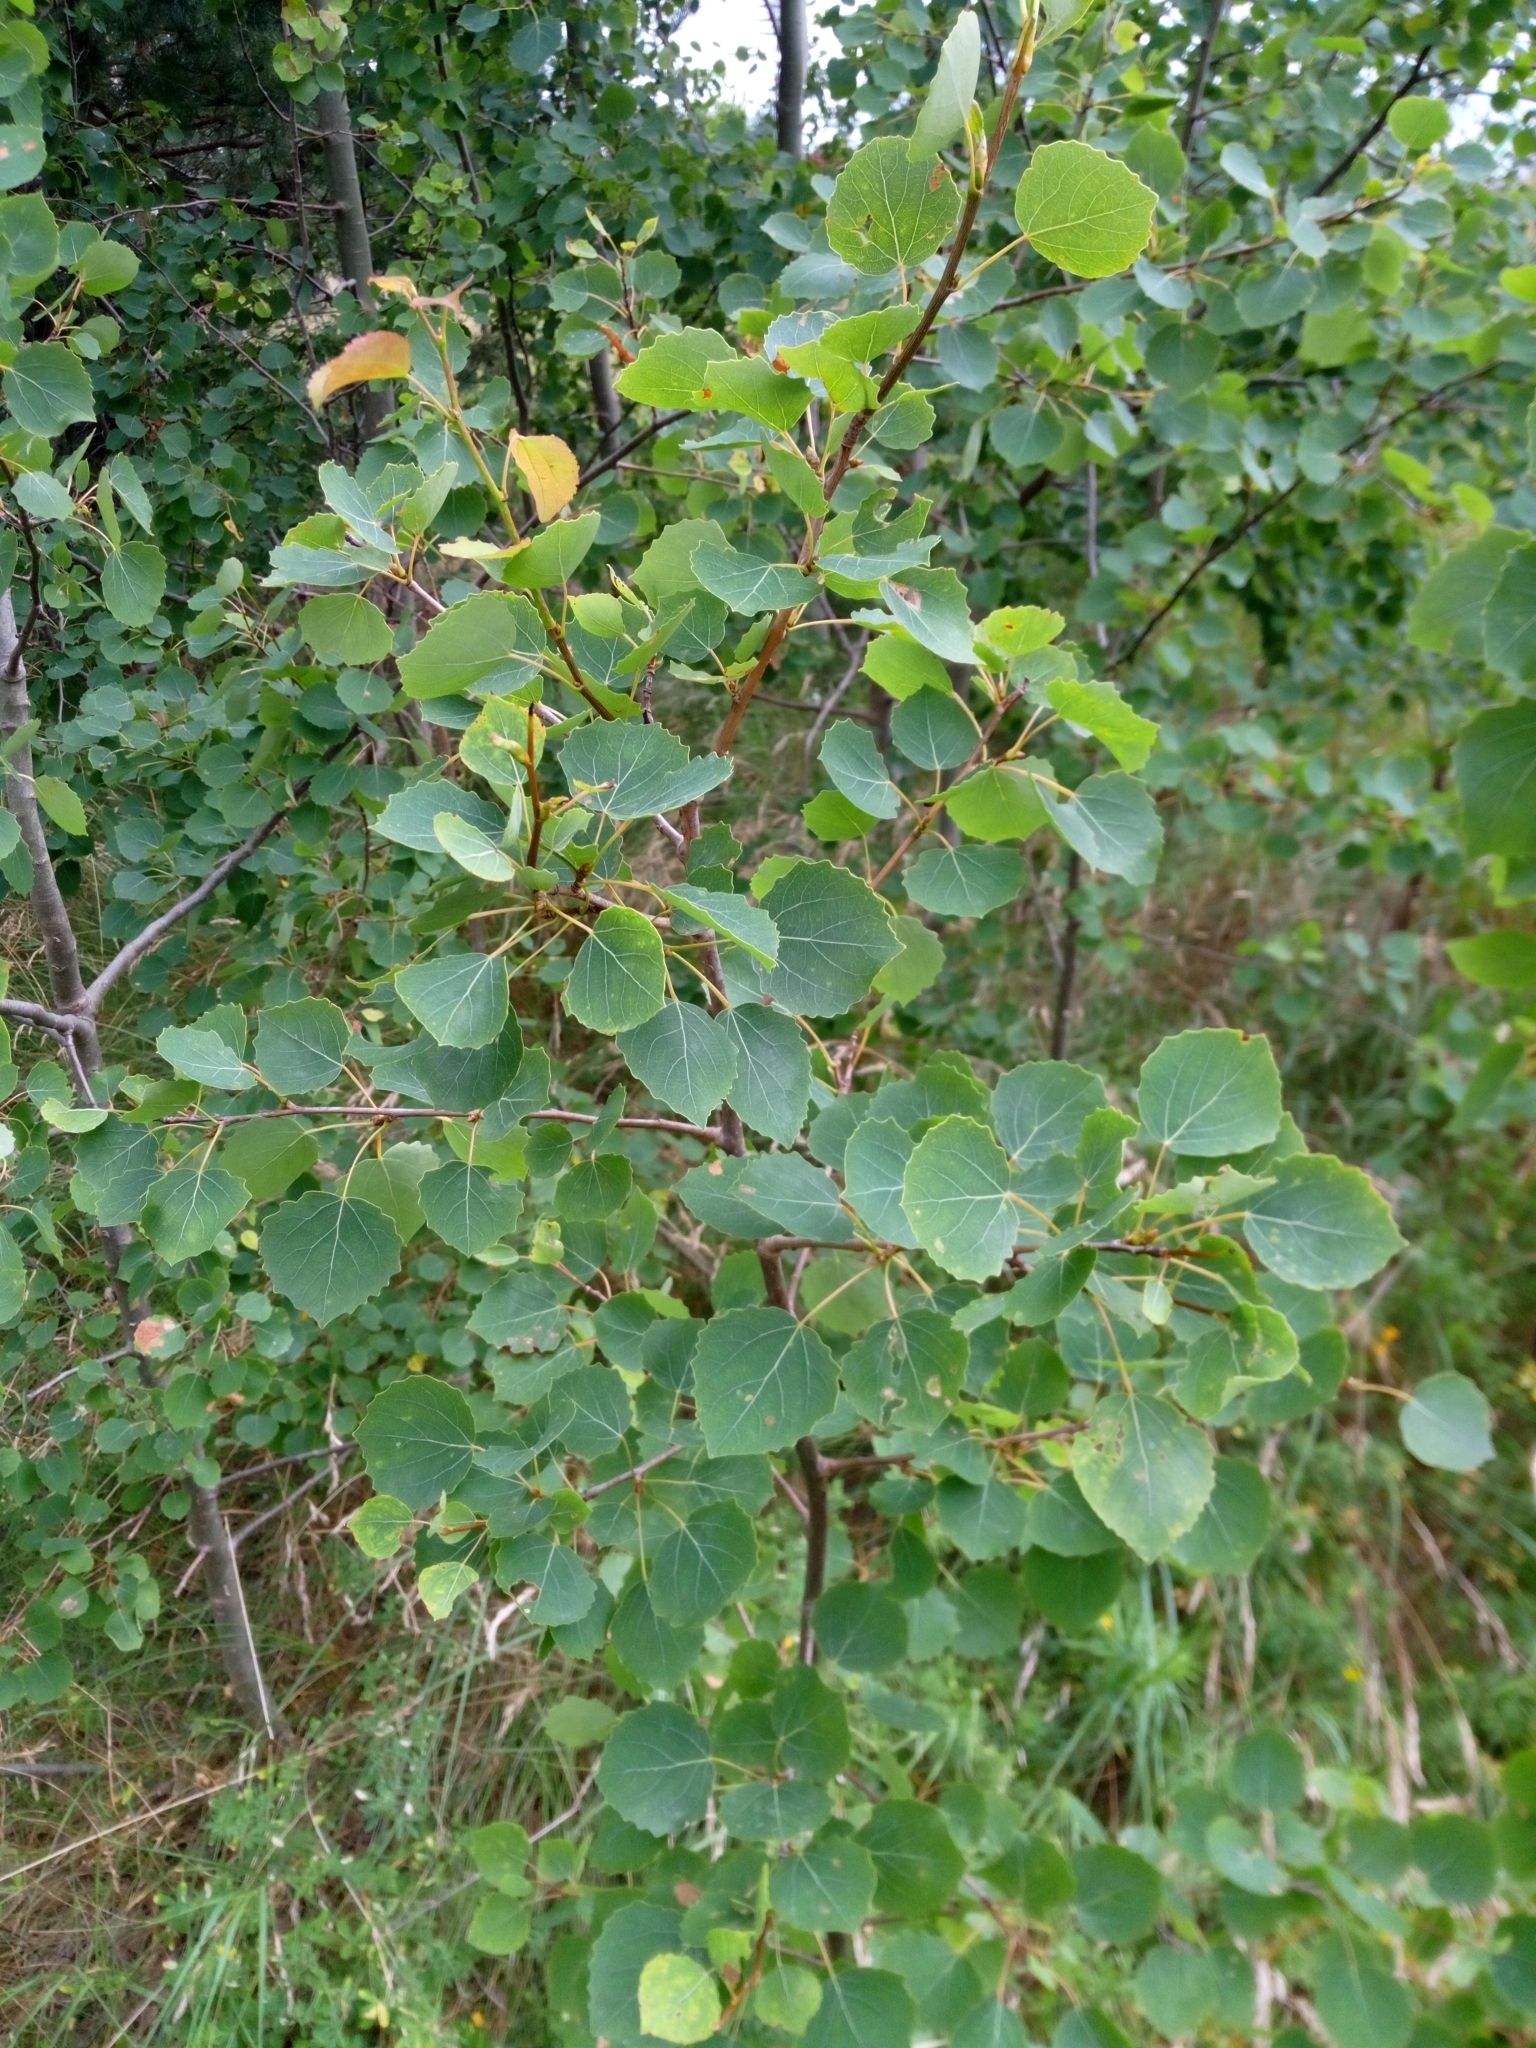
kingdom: Plantae
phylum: Tracheophyta
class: Magnoliopsida
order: Malpighiales
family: Salicaceae
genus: Populus
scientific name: Populus tremula
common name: European aspen
